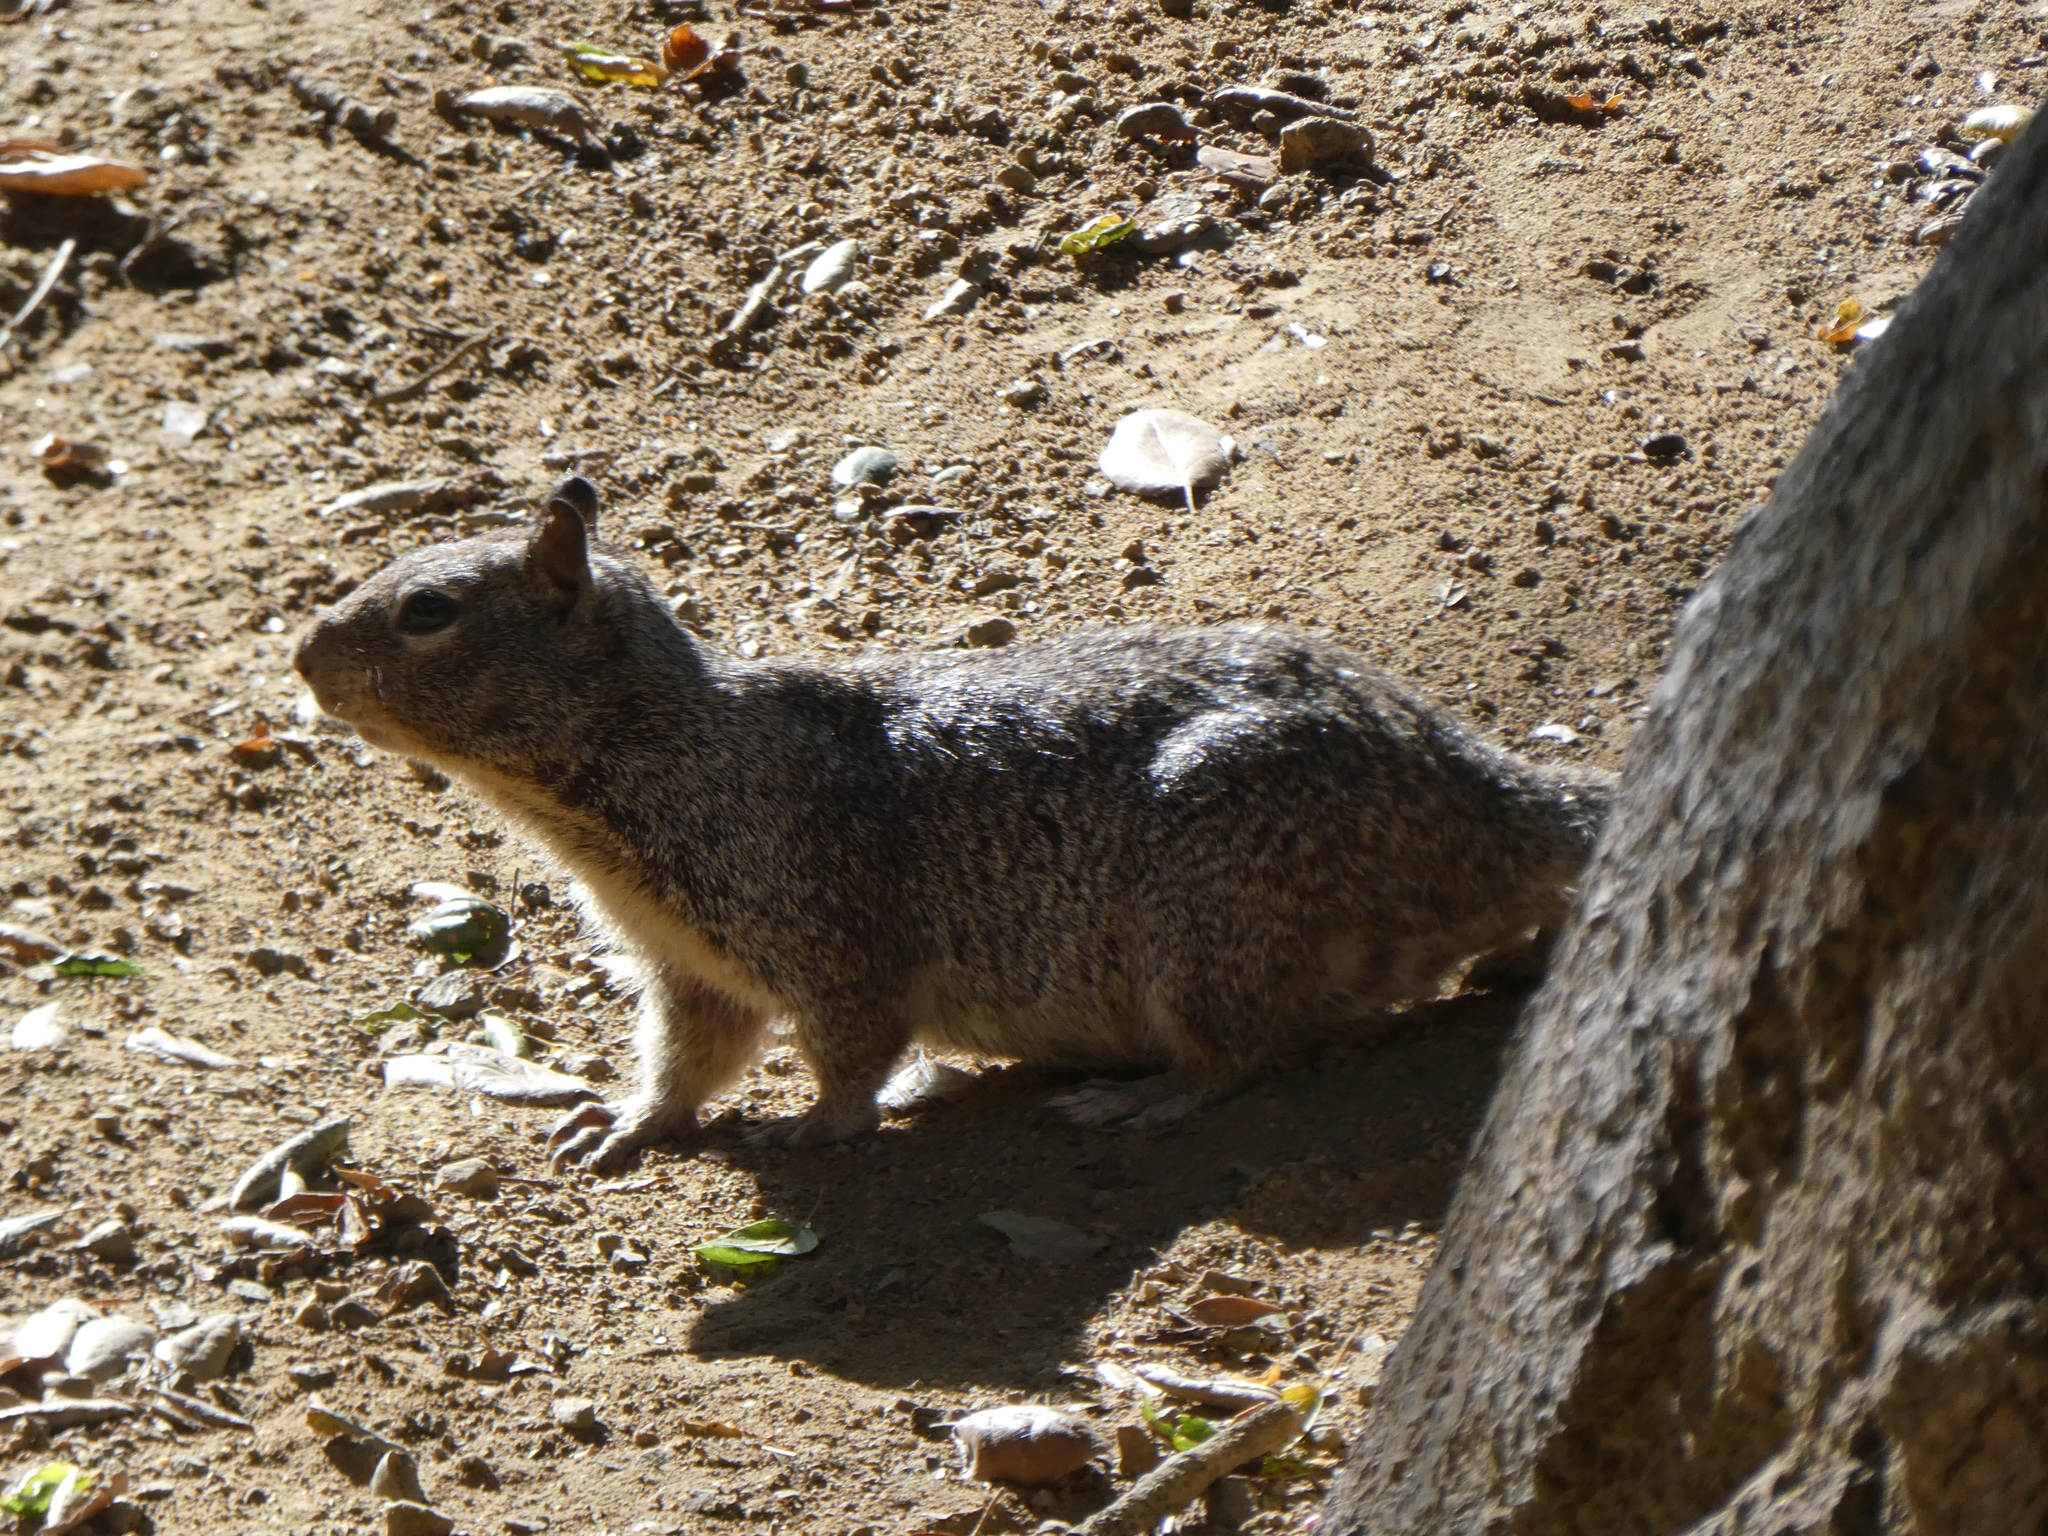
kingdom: Animalia
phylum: Chordata
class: Mammalia
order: Rodentia
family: Sciuridae
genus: Otospermophilus
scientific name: Otospermophilus beecheyi
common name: California ground squirrel
